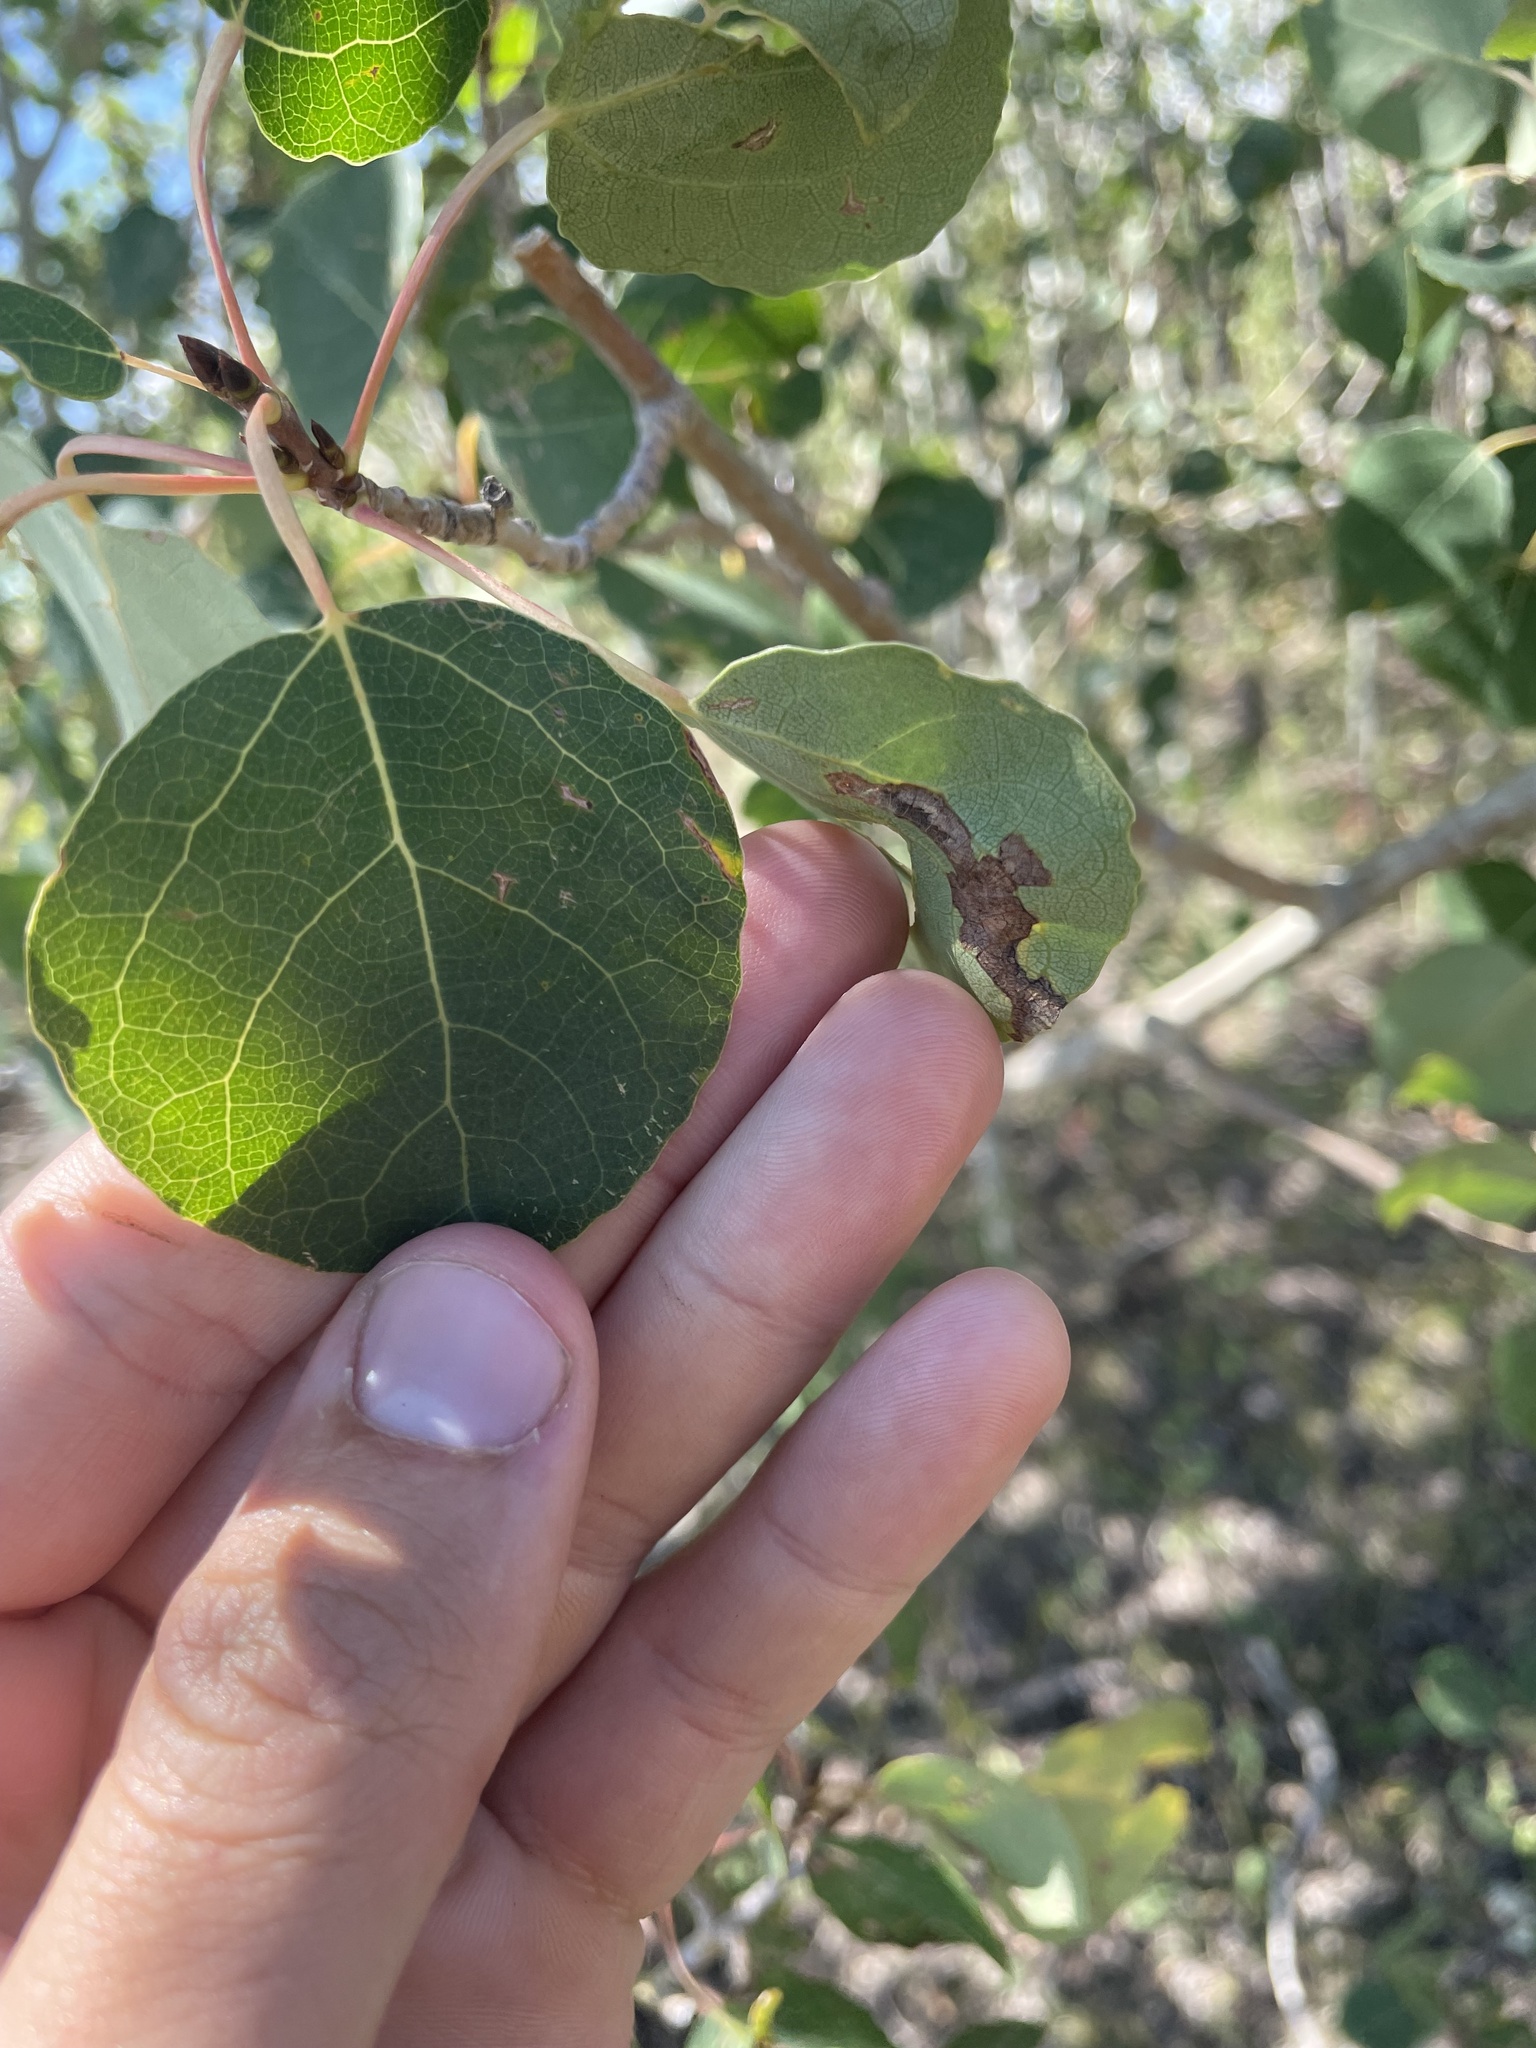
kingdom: Plantae
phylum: Tracheophyta
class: Magnoliopsida
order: Malpighiales
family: Salicaceae
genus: Populus
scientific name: Populus tremuloides
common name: Quaking aspen
